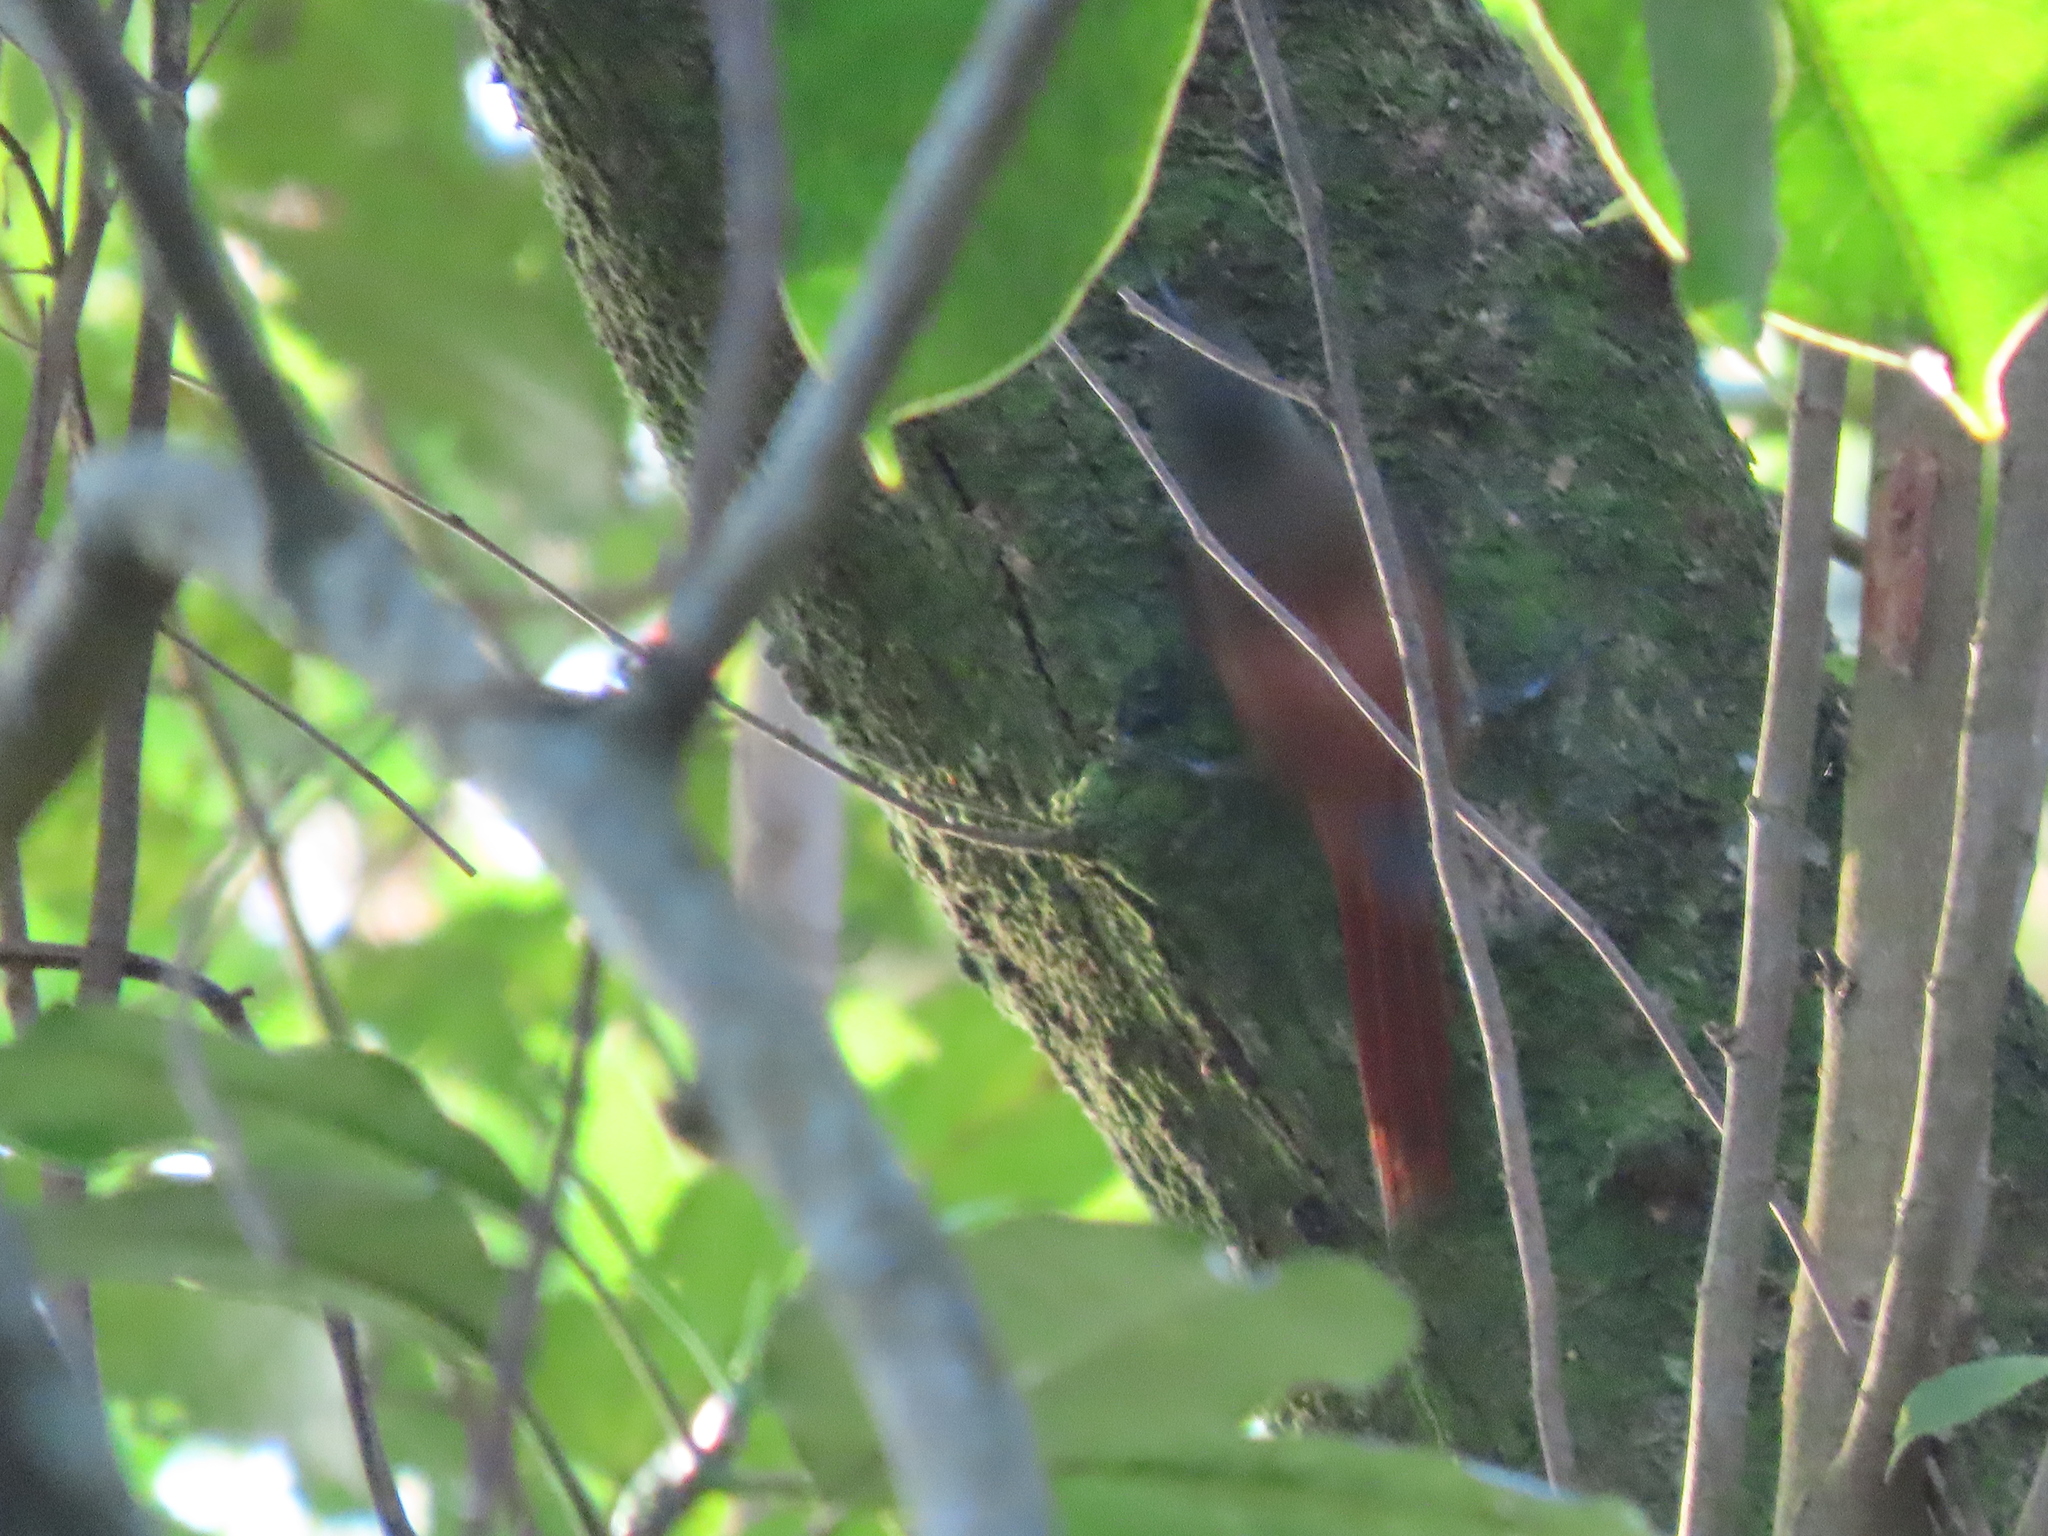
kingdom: Animalia
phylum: Chordata
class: Aves
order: Passeriformes
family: Furnariidae
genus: Sittasomus
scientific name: Sittasomus griseicapillus
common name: Olivaceous woodcreeper
